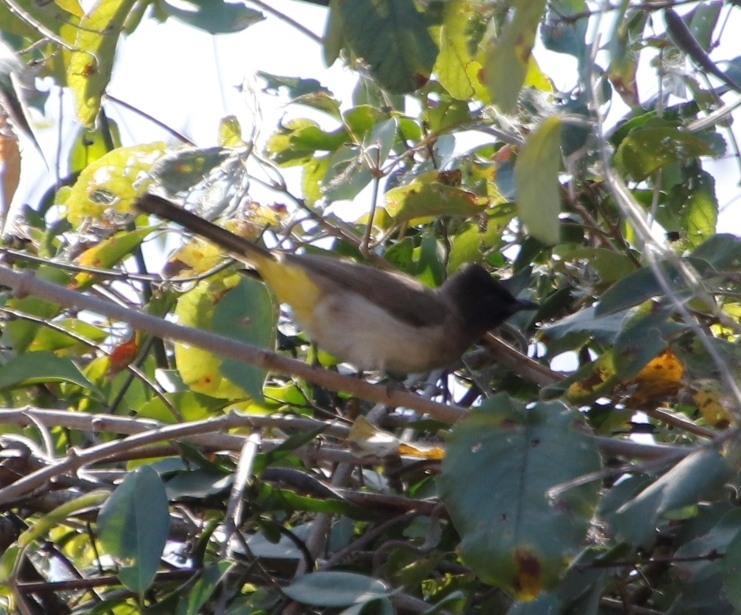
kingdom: Animalia
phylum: Chordata
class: Aves
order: Passeriformes
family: Pycnonotidae
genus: Pycnonotus
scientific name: Pycnonotus barbatus
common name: Common bulbul
